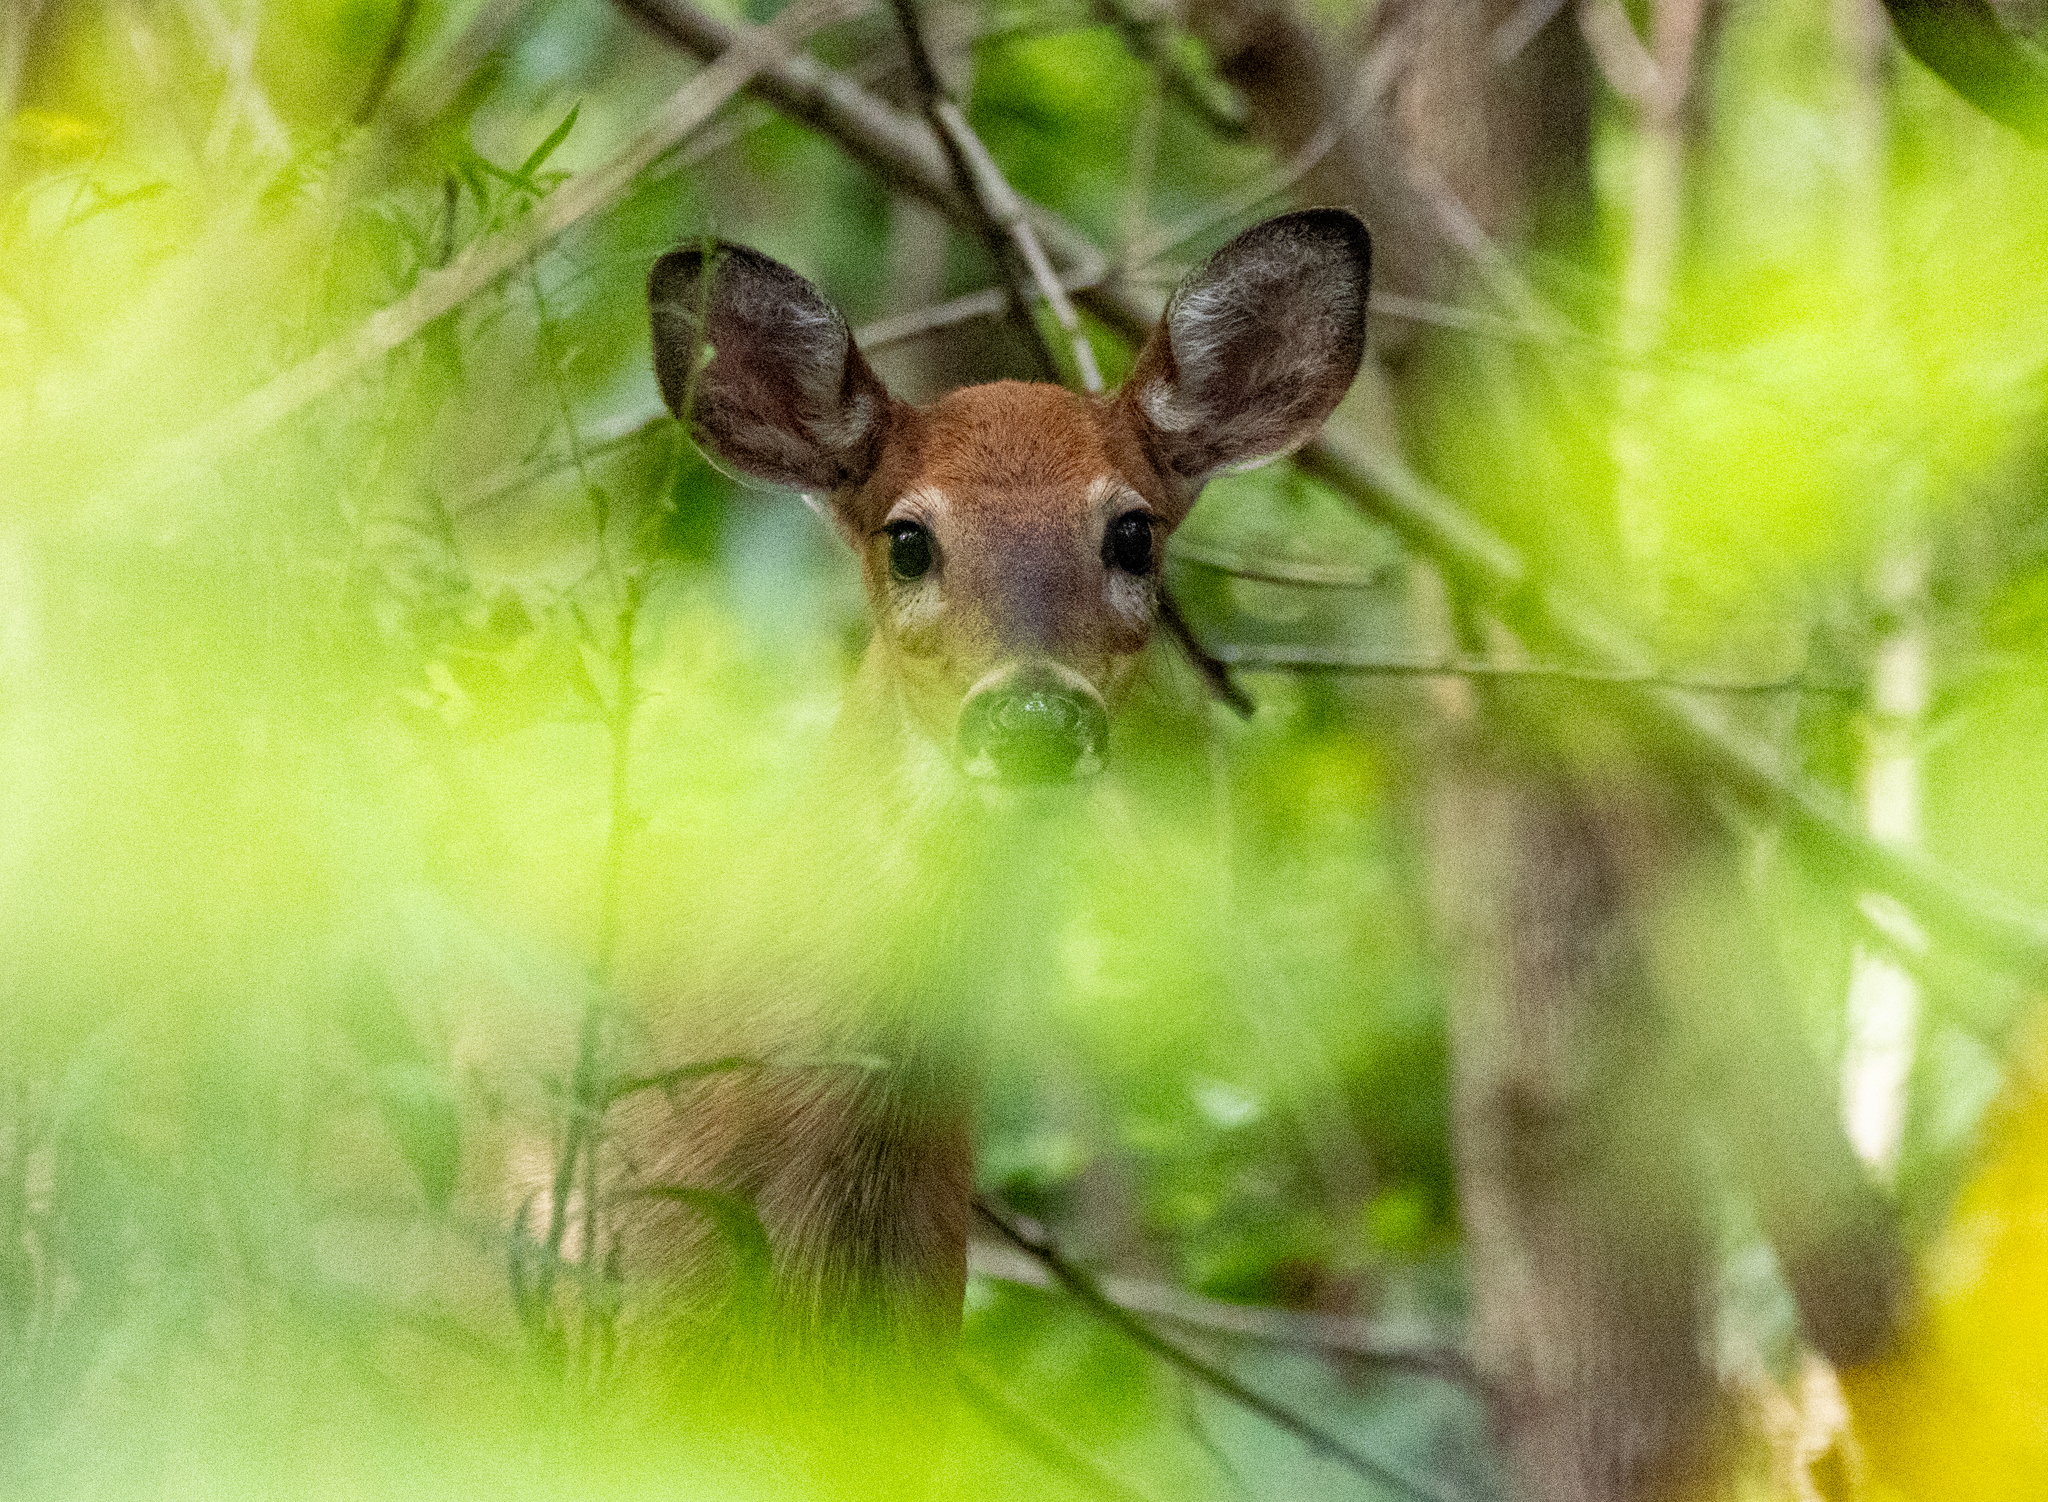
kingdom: Animalia
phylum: Chordata
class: Mammalia
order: Artiodactyla
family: Cervidae
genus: Odocoileus
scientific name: Odocoileus virginianus
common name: White-tailed deer
